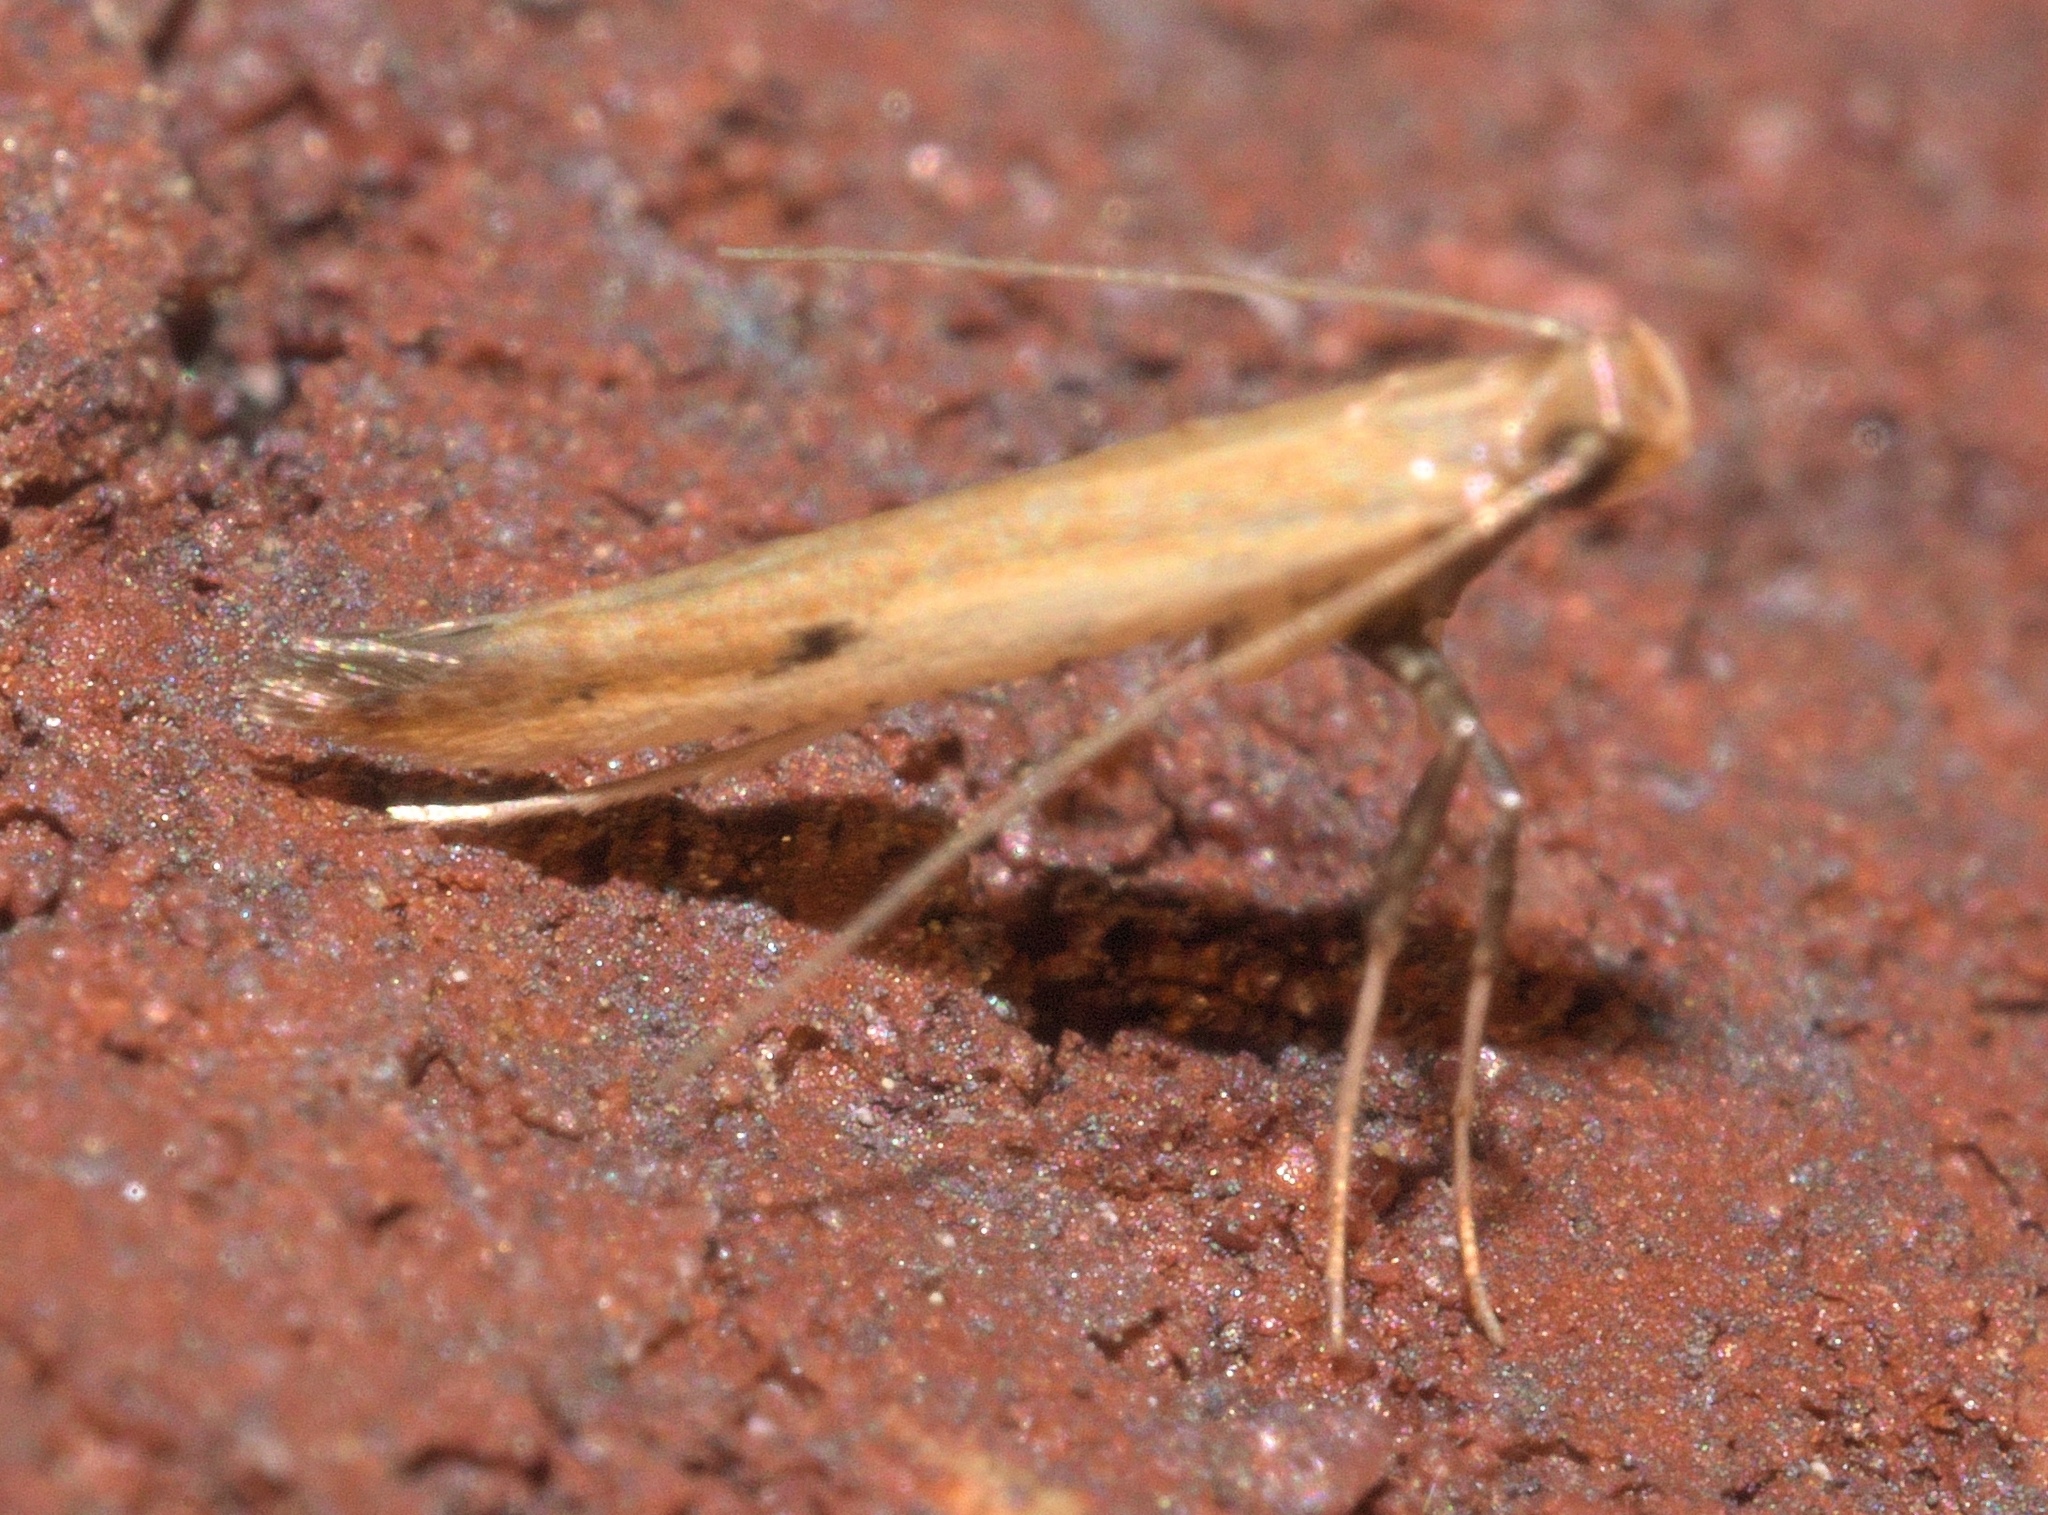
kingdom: Animalia
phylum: Arthropoda
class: Insecta
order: Lepidoptera
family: Gracillariidae
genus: Caloptilia
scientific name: Caloptilia violacella
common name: Tick-trefoil caloptilia moth
